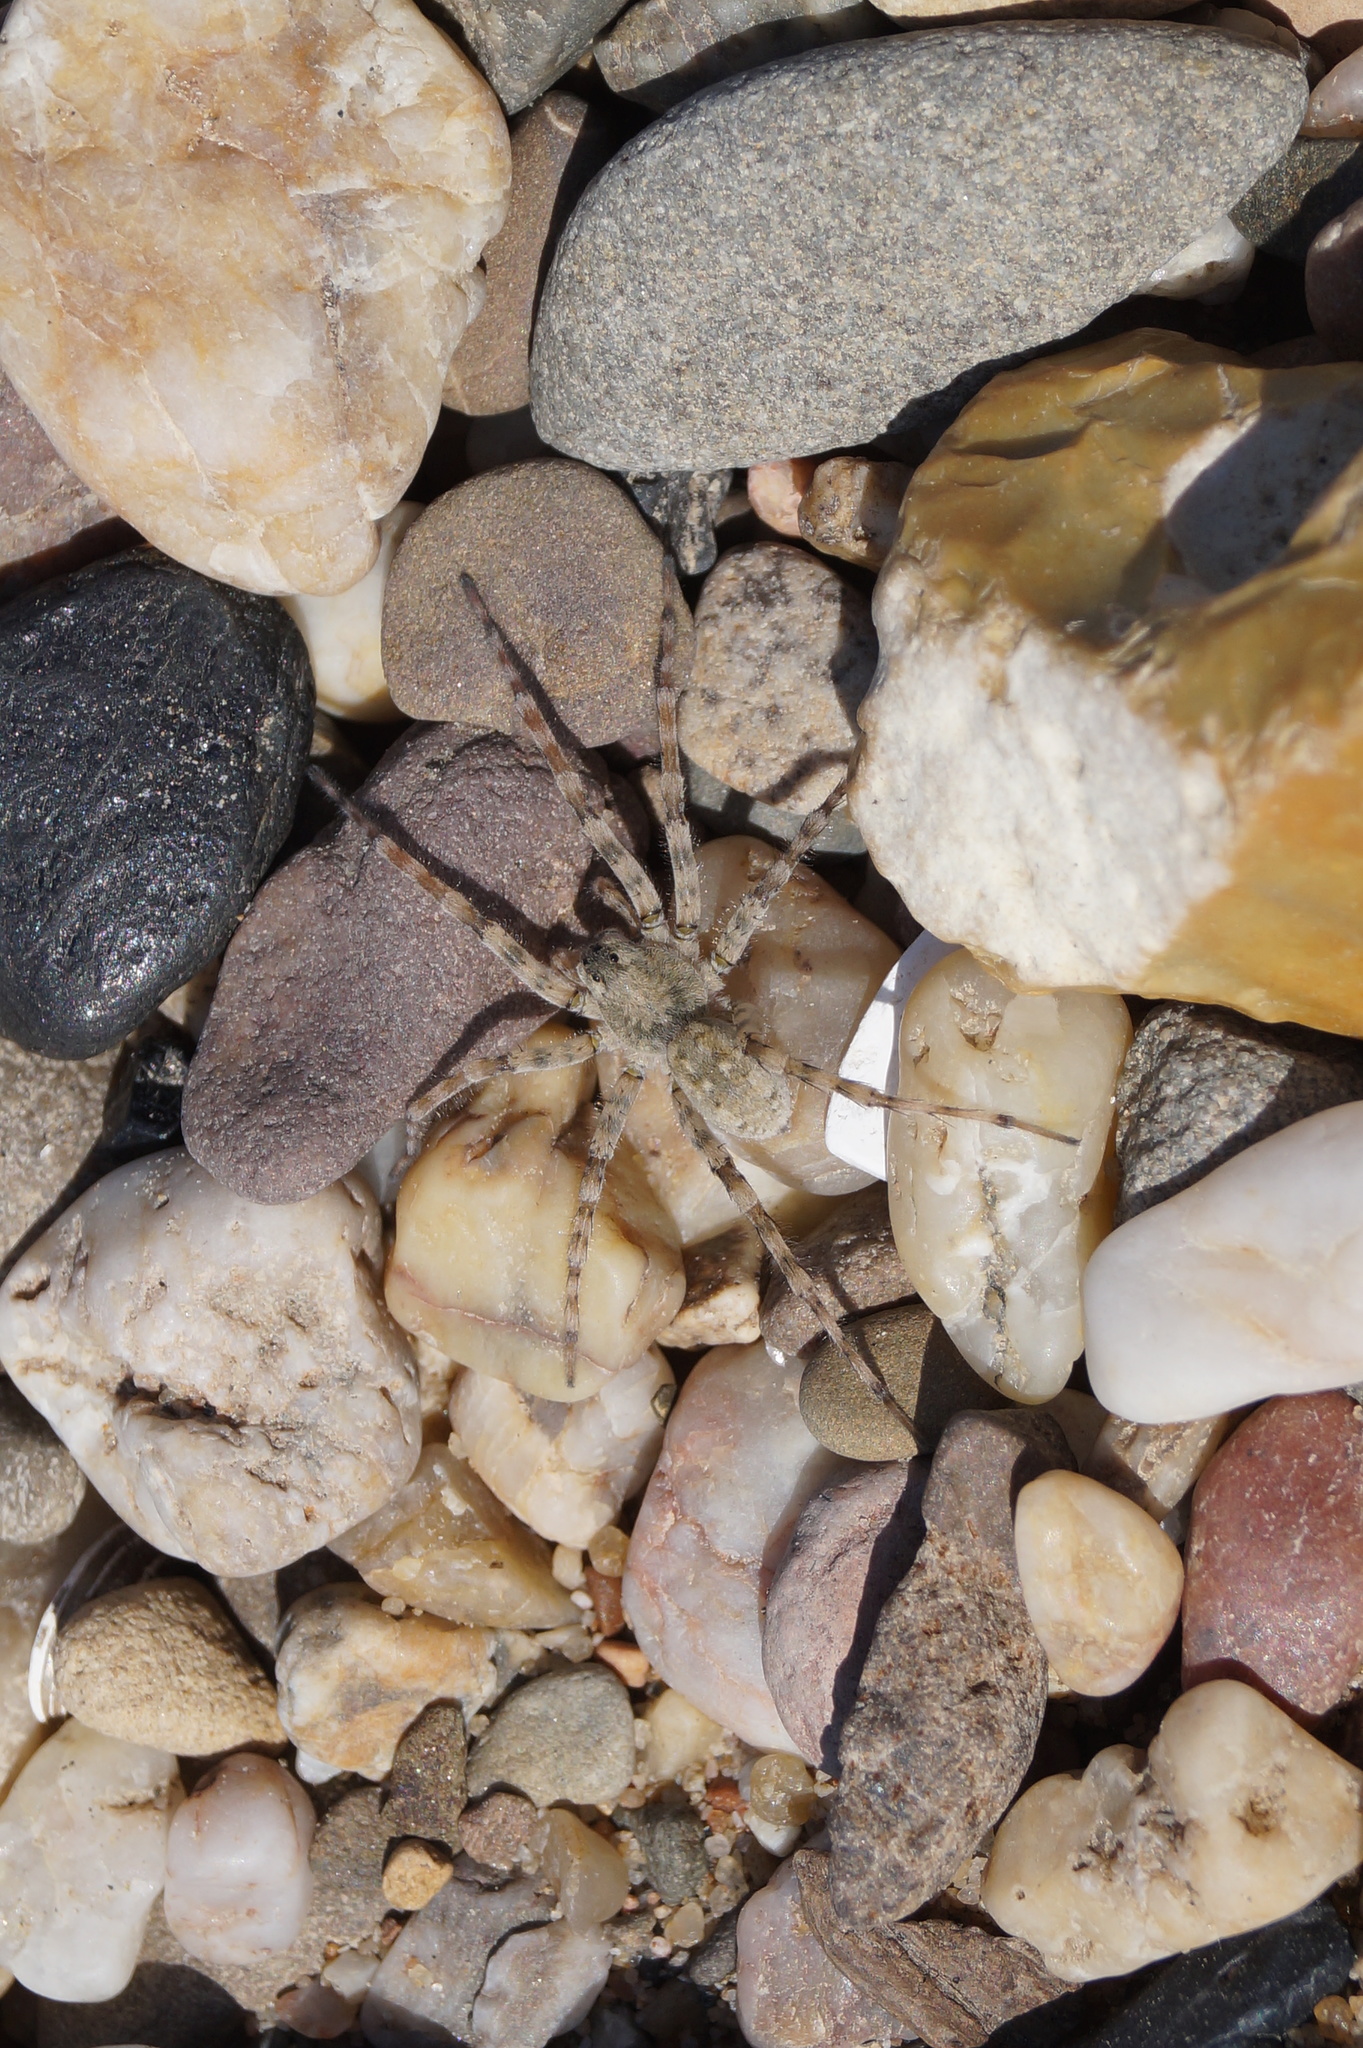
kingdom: Animalia
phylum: Arthropoda
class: Arachnida
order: Araneae
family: Lycosidae
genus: Arctosa
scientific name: Arctosa cinerea
